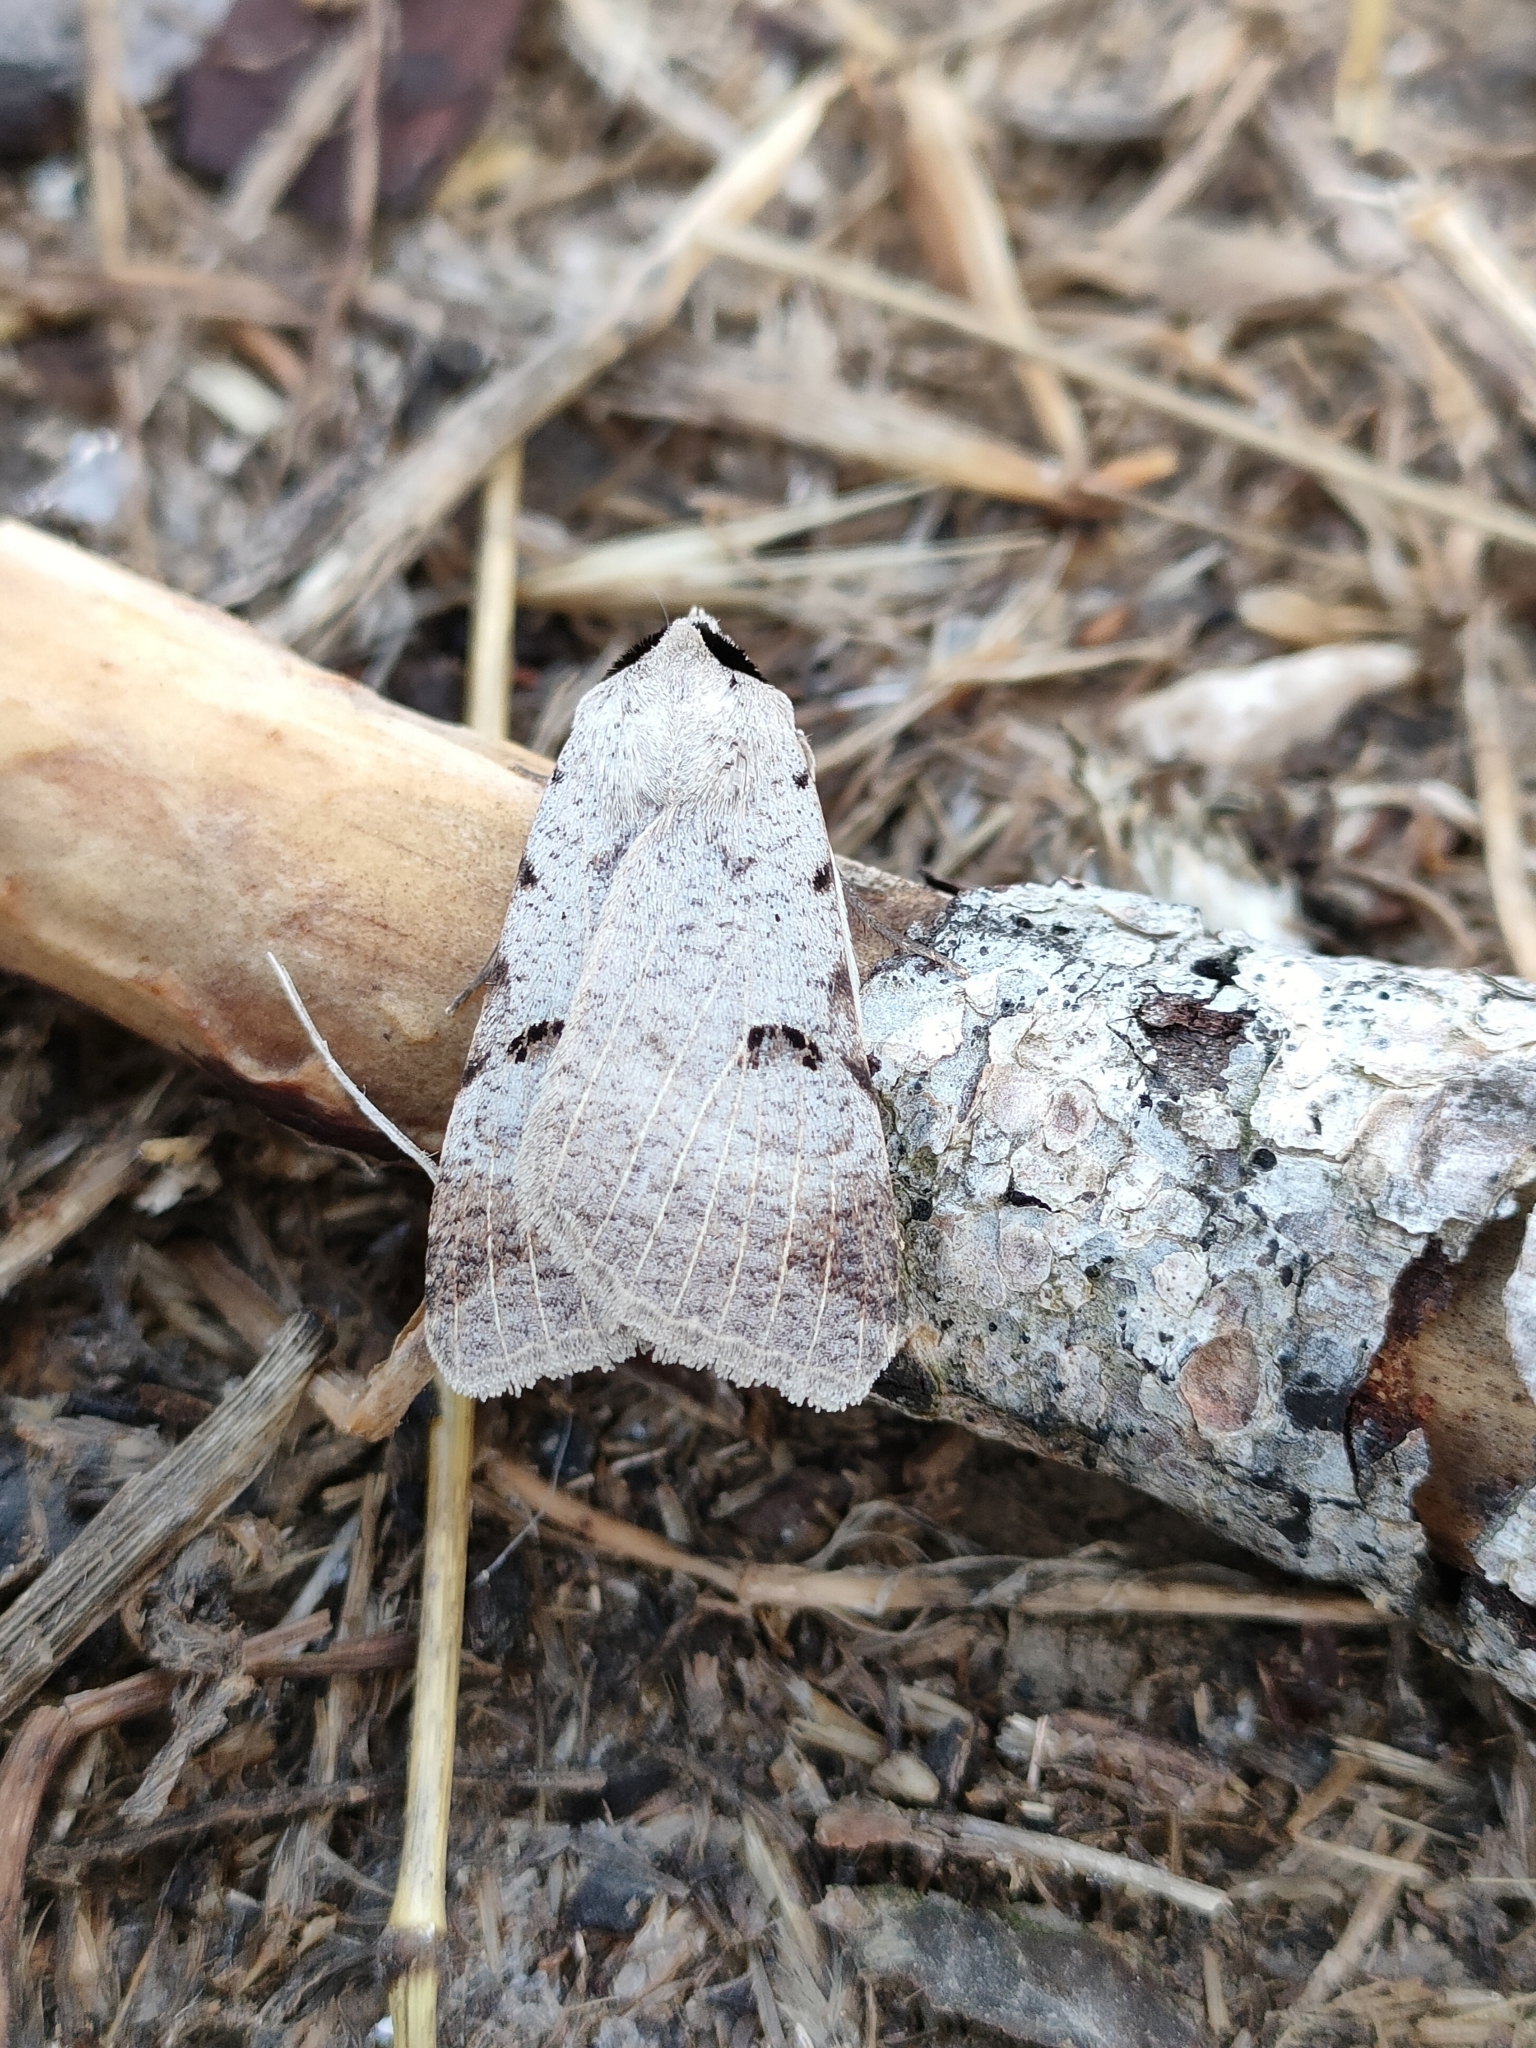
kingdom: Animalia
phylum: Arthropoda
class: Insecta
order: Lepidoptera
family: Erebidae
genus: Lygephila
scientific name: Lygephila craccae
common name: Scarce blackneck
